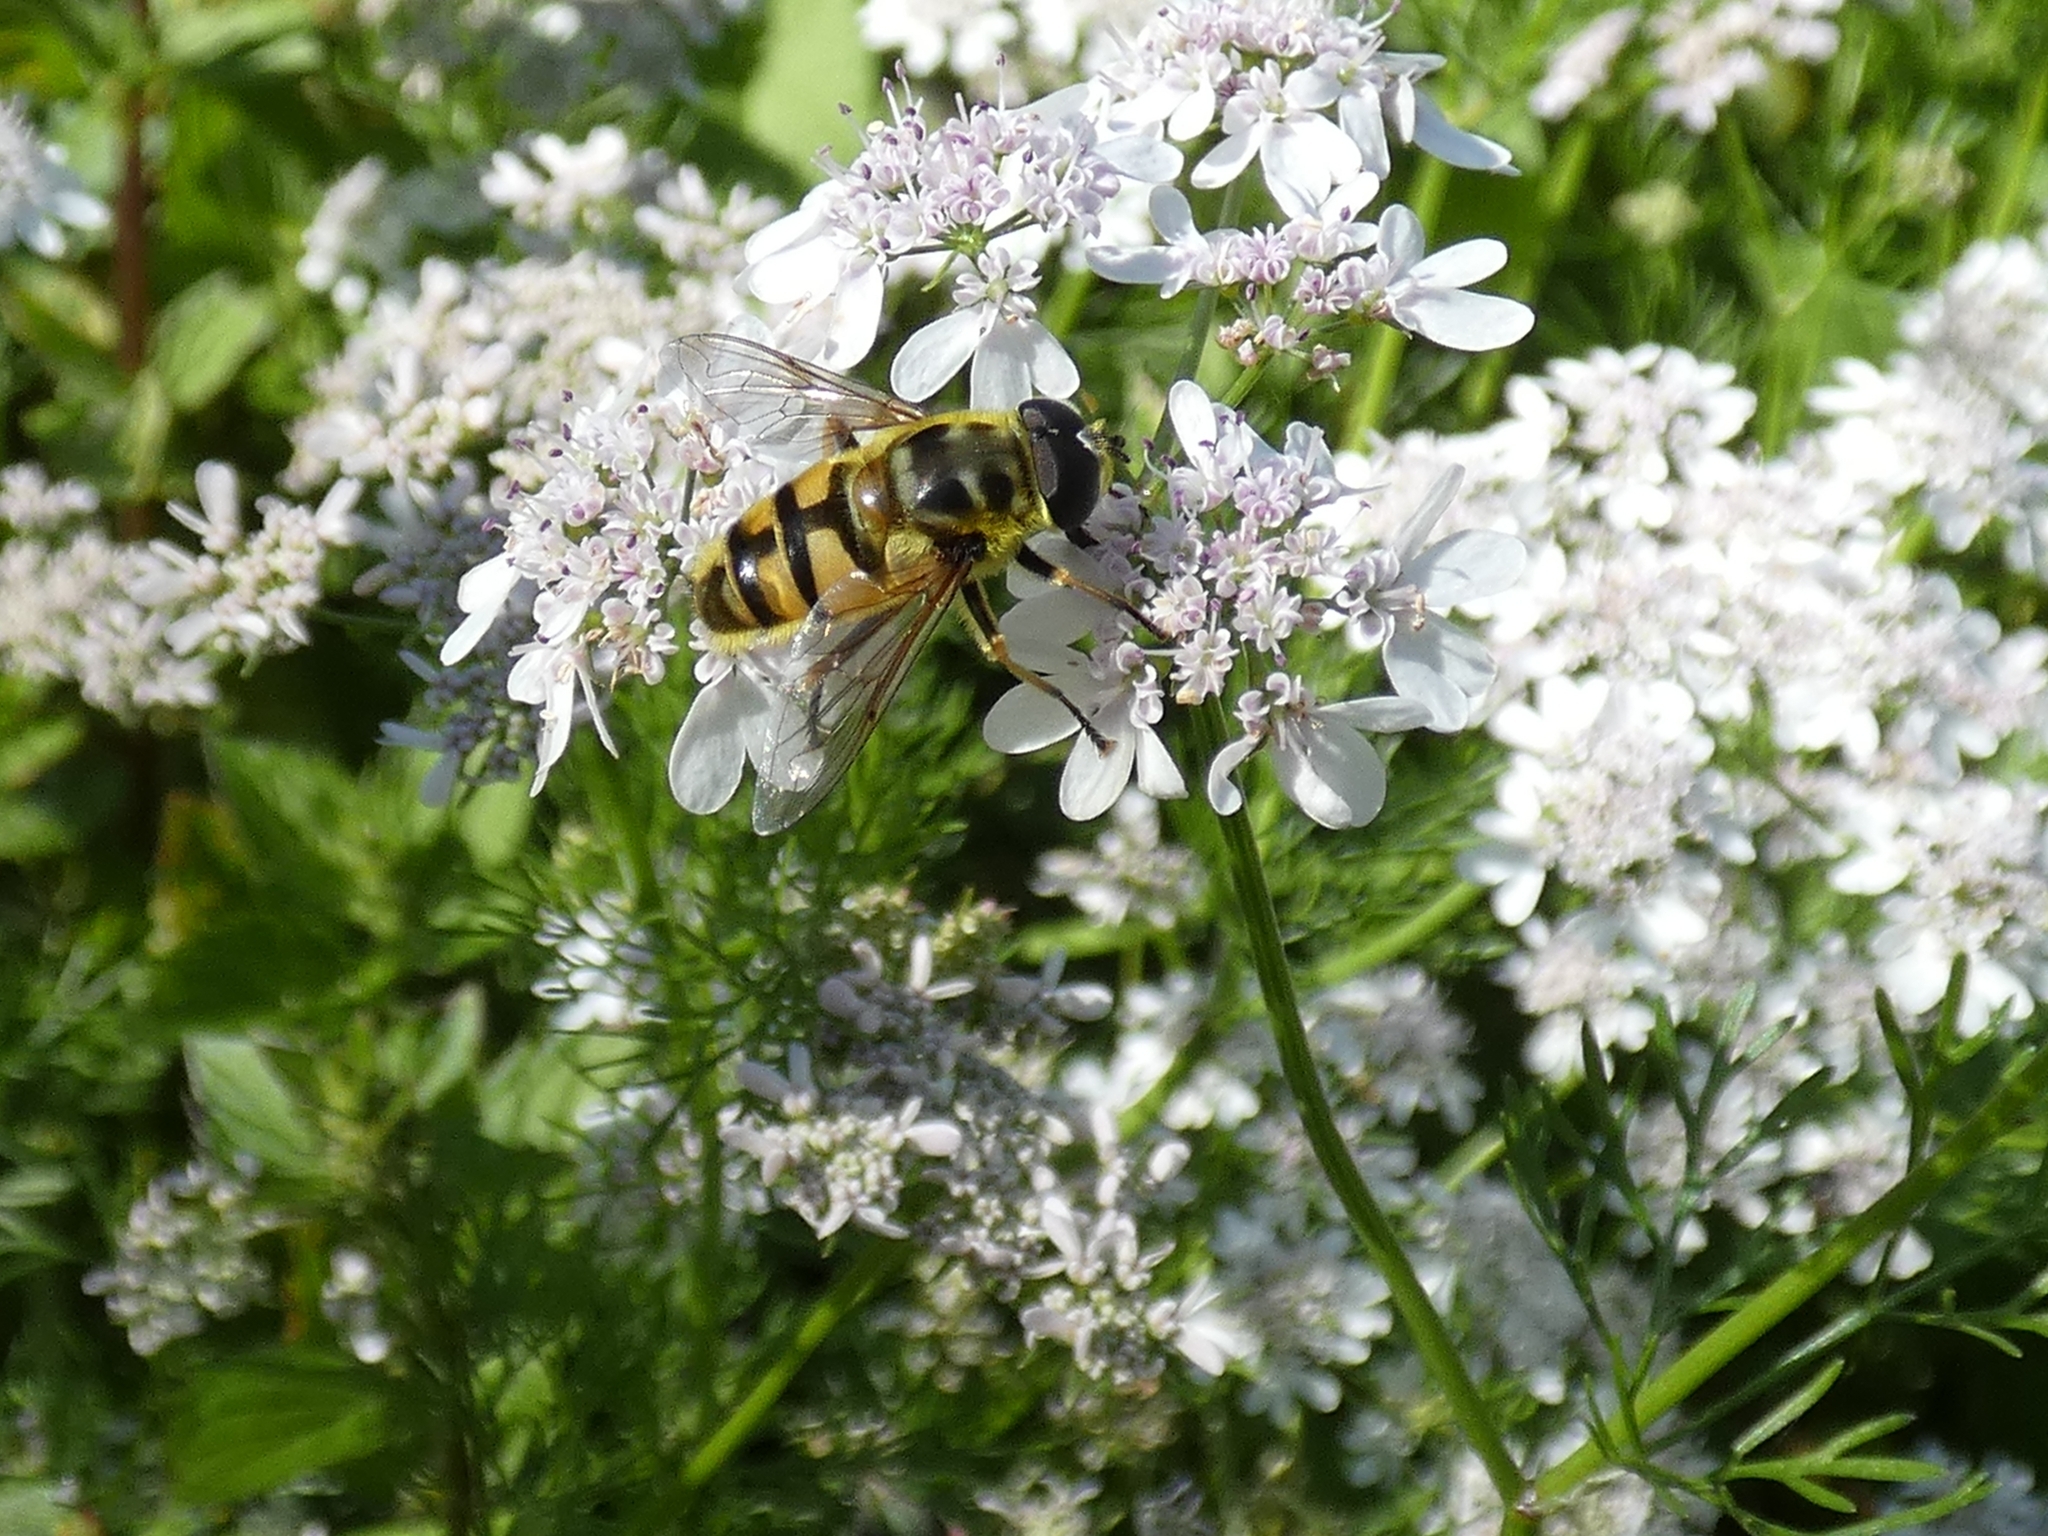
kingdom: Animalia
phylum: Arthropoda
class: Insecta
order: Diptera
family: Syrphidae
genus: Myathropa
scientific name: Myathropa florea
